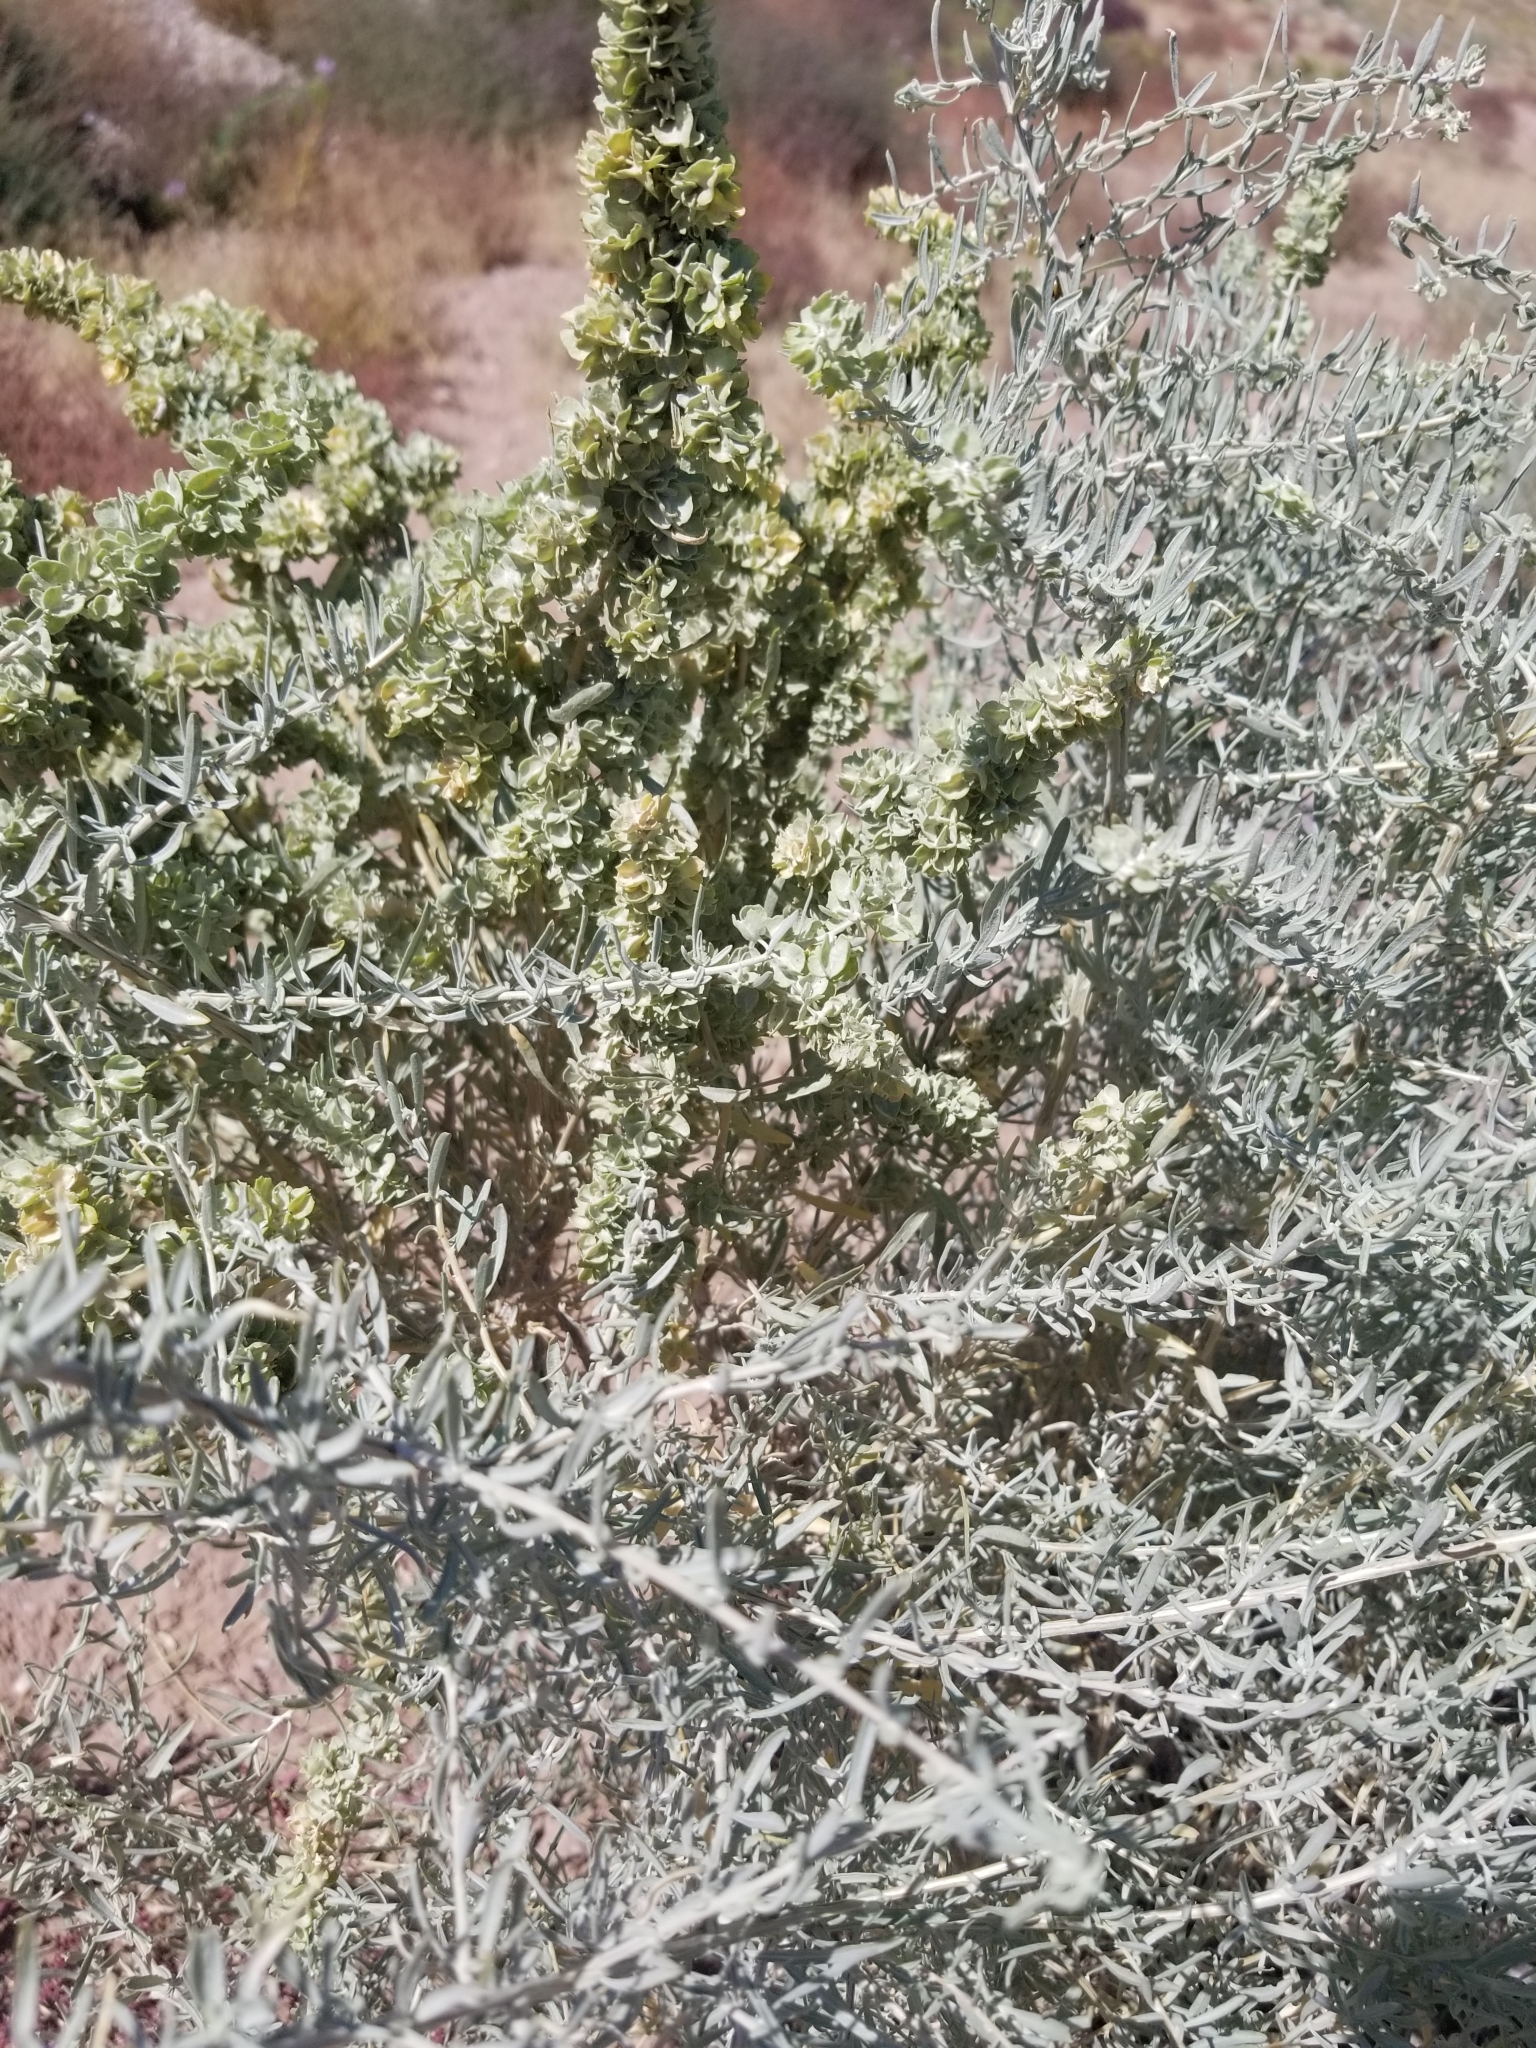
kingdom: Plantae
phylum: Tracheophyta
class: Magnoliopsida
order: Caryophyllales
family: Amaranthaceae
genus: Atriplex
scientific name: Atriplex canescens
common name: Four-wing saltbush
